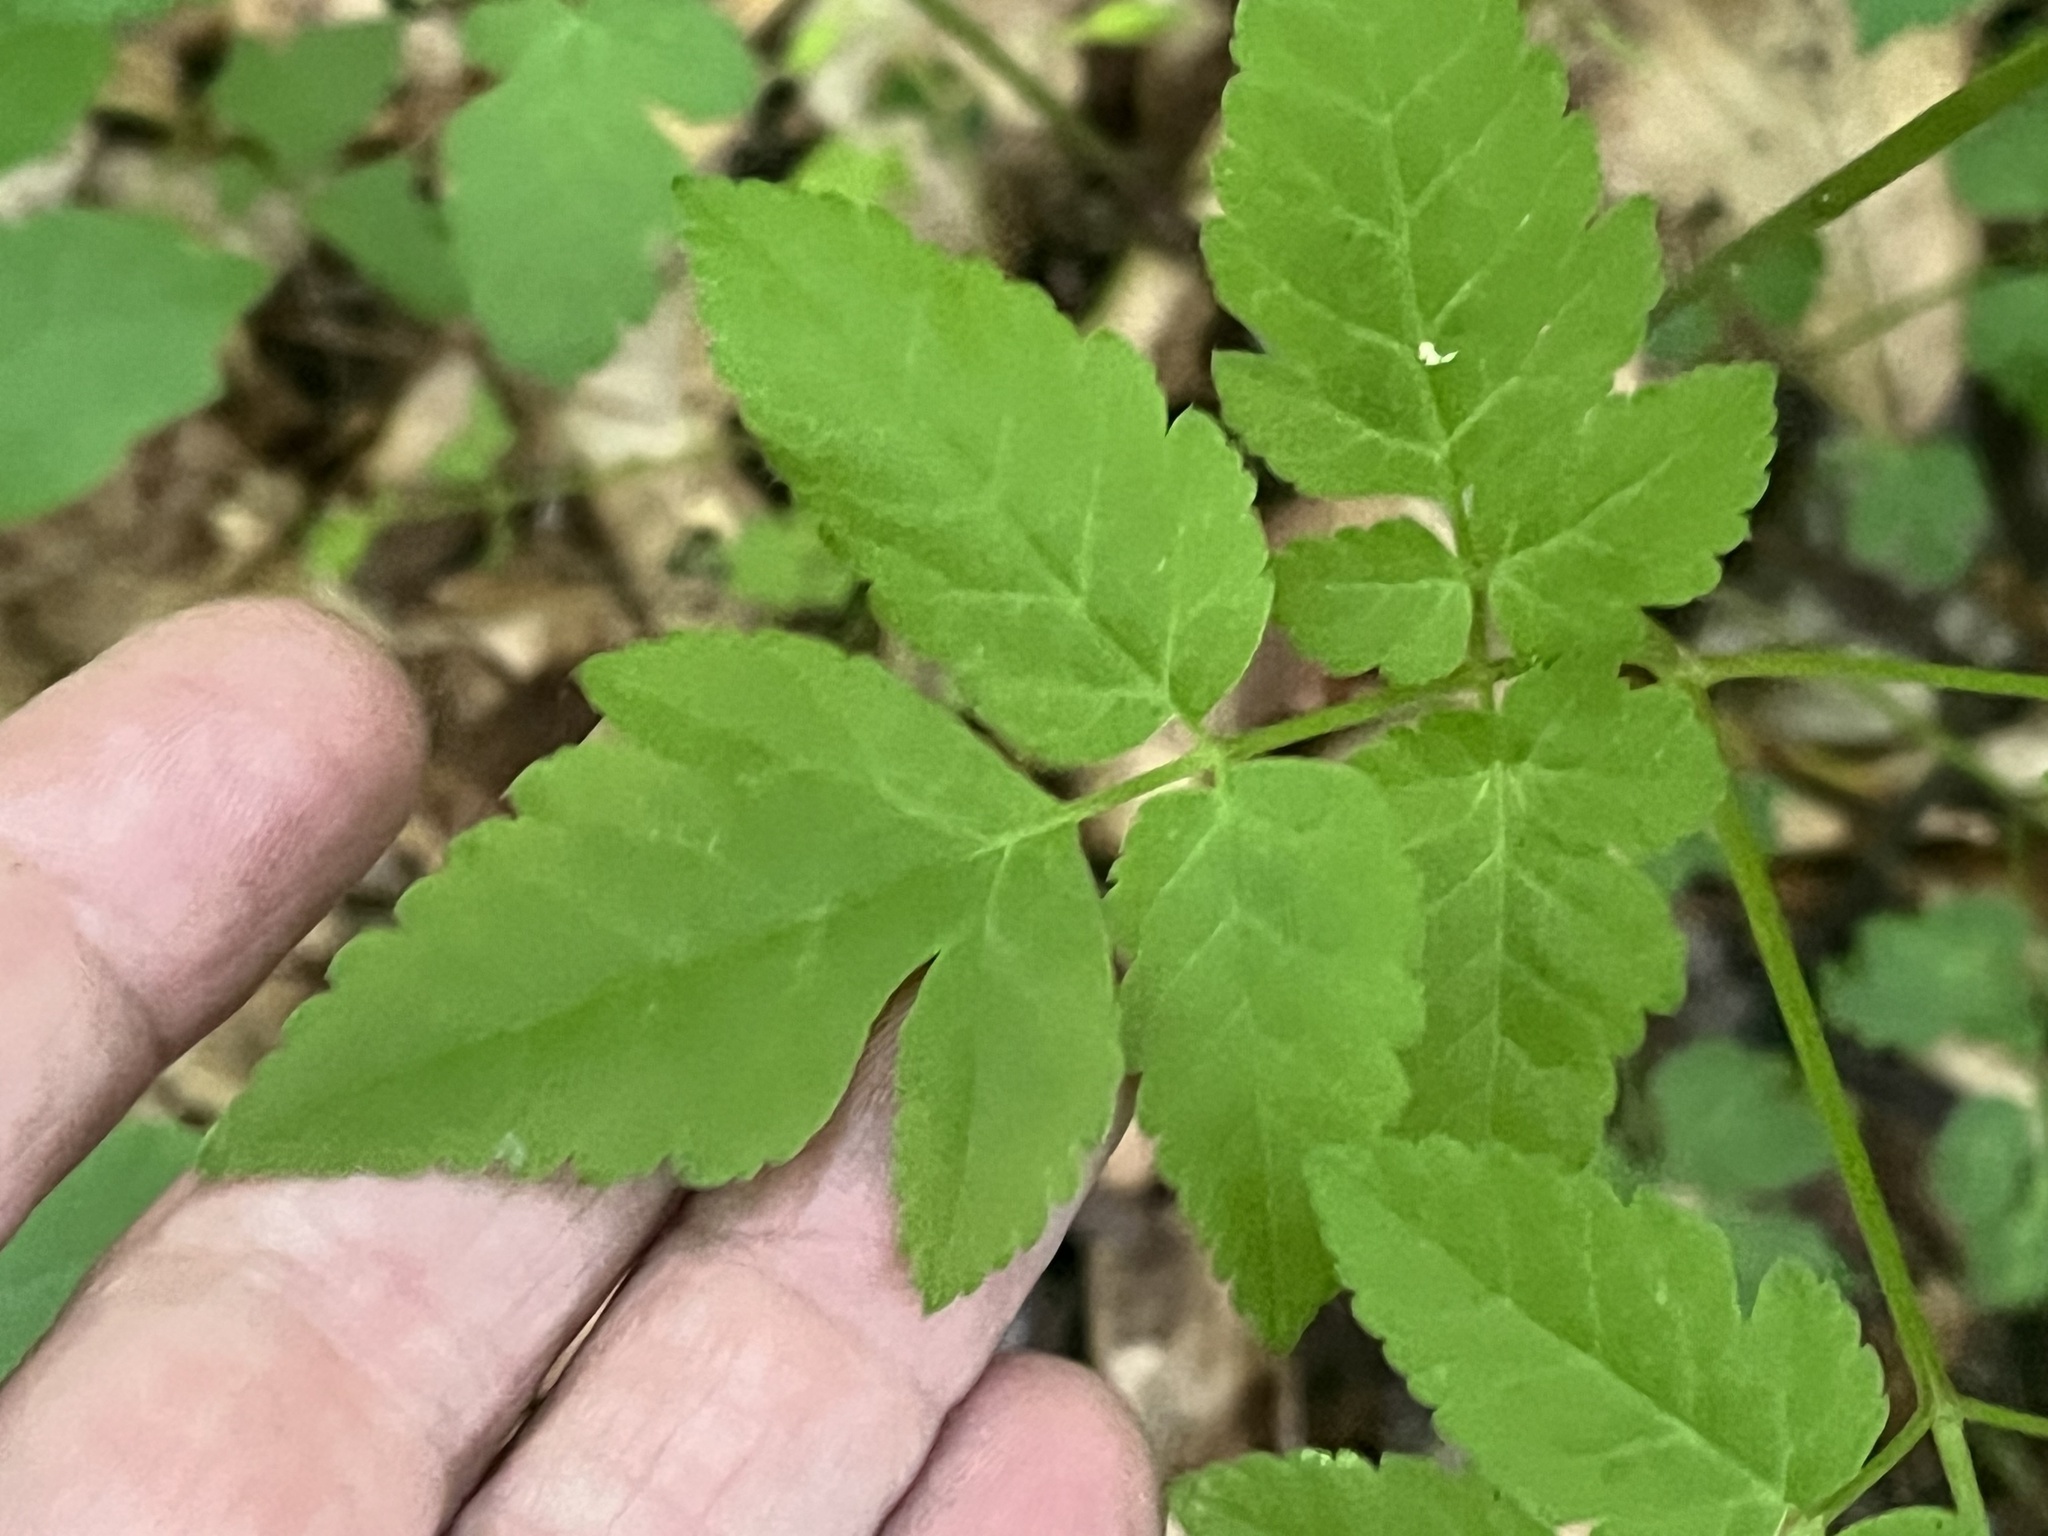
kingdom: Plantae
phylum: Tracheophyta
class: Magnoliopsida
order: Apiales
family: Apiaceae
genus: Osmorhiza
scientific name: Osmorhiza longistylis
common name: Smooth sweet cicely
